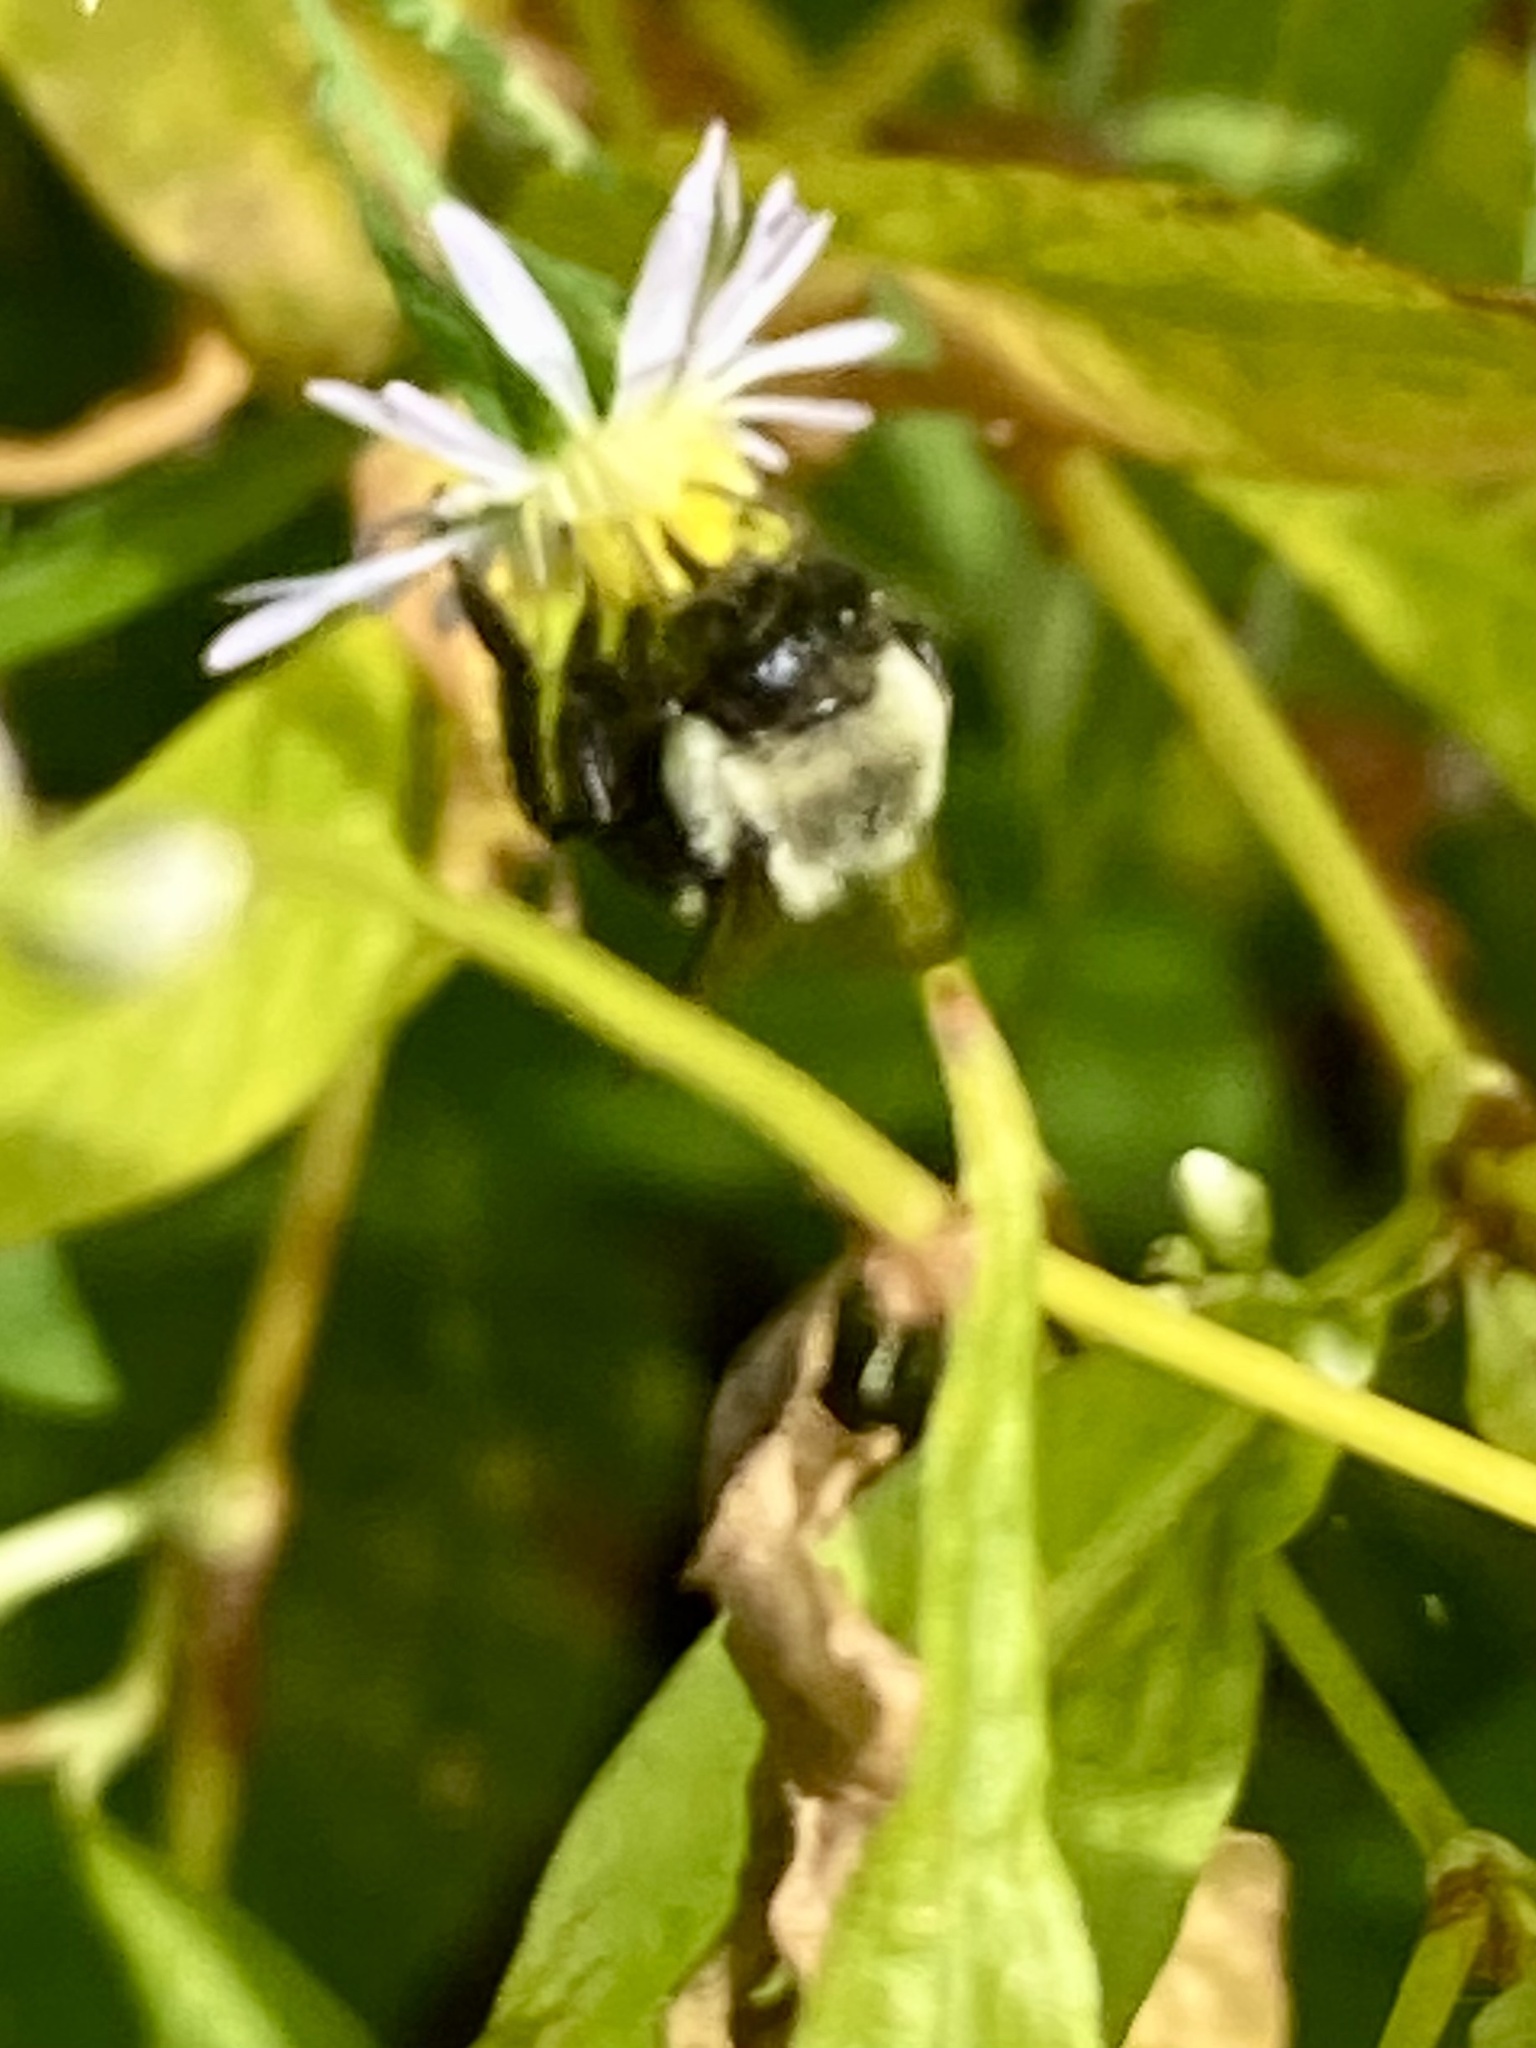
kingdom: Animalia
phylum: Arthropoda
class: Insecta
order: Hymenoptera
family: Apidae
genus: Bombus
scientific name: Bombus impatiens
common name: Common eastern bumble bee
